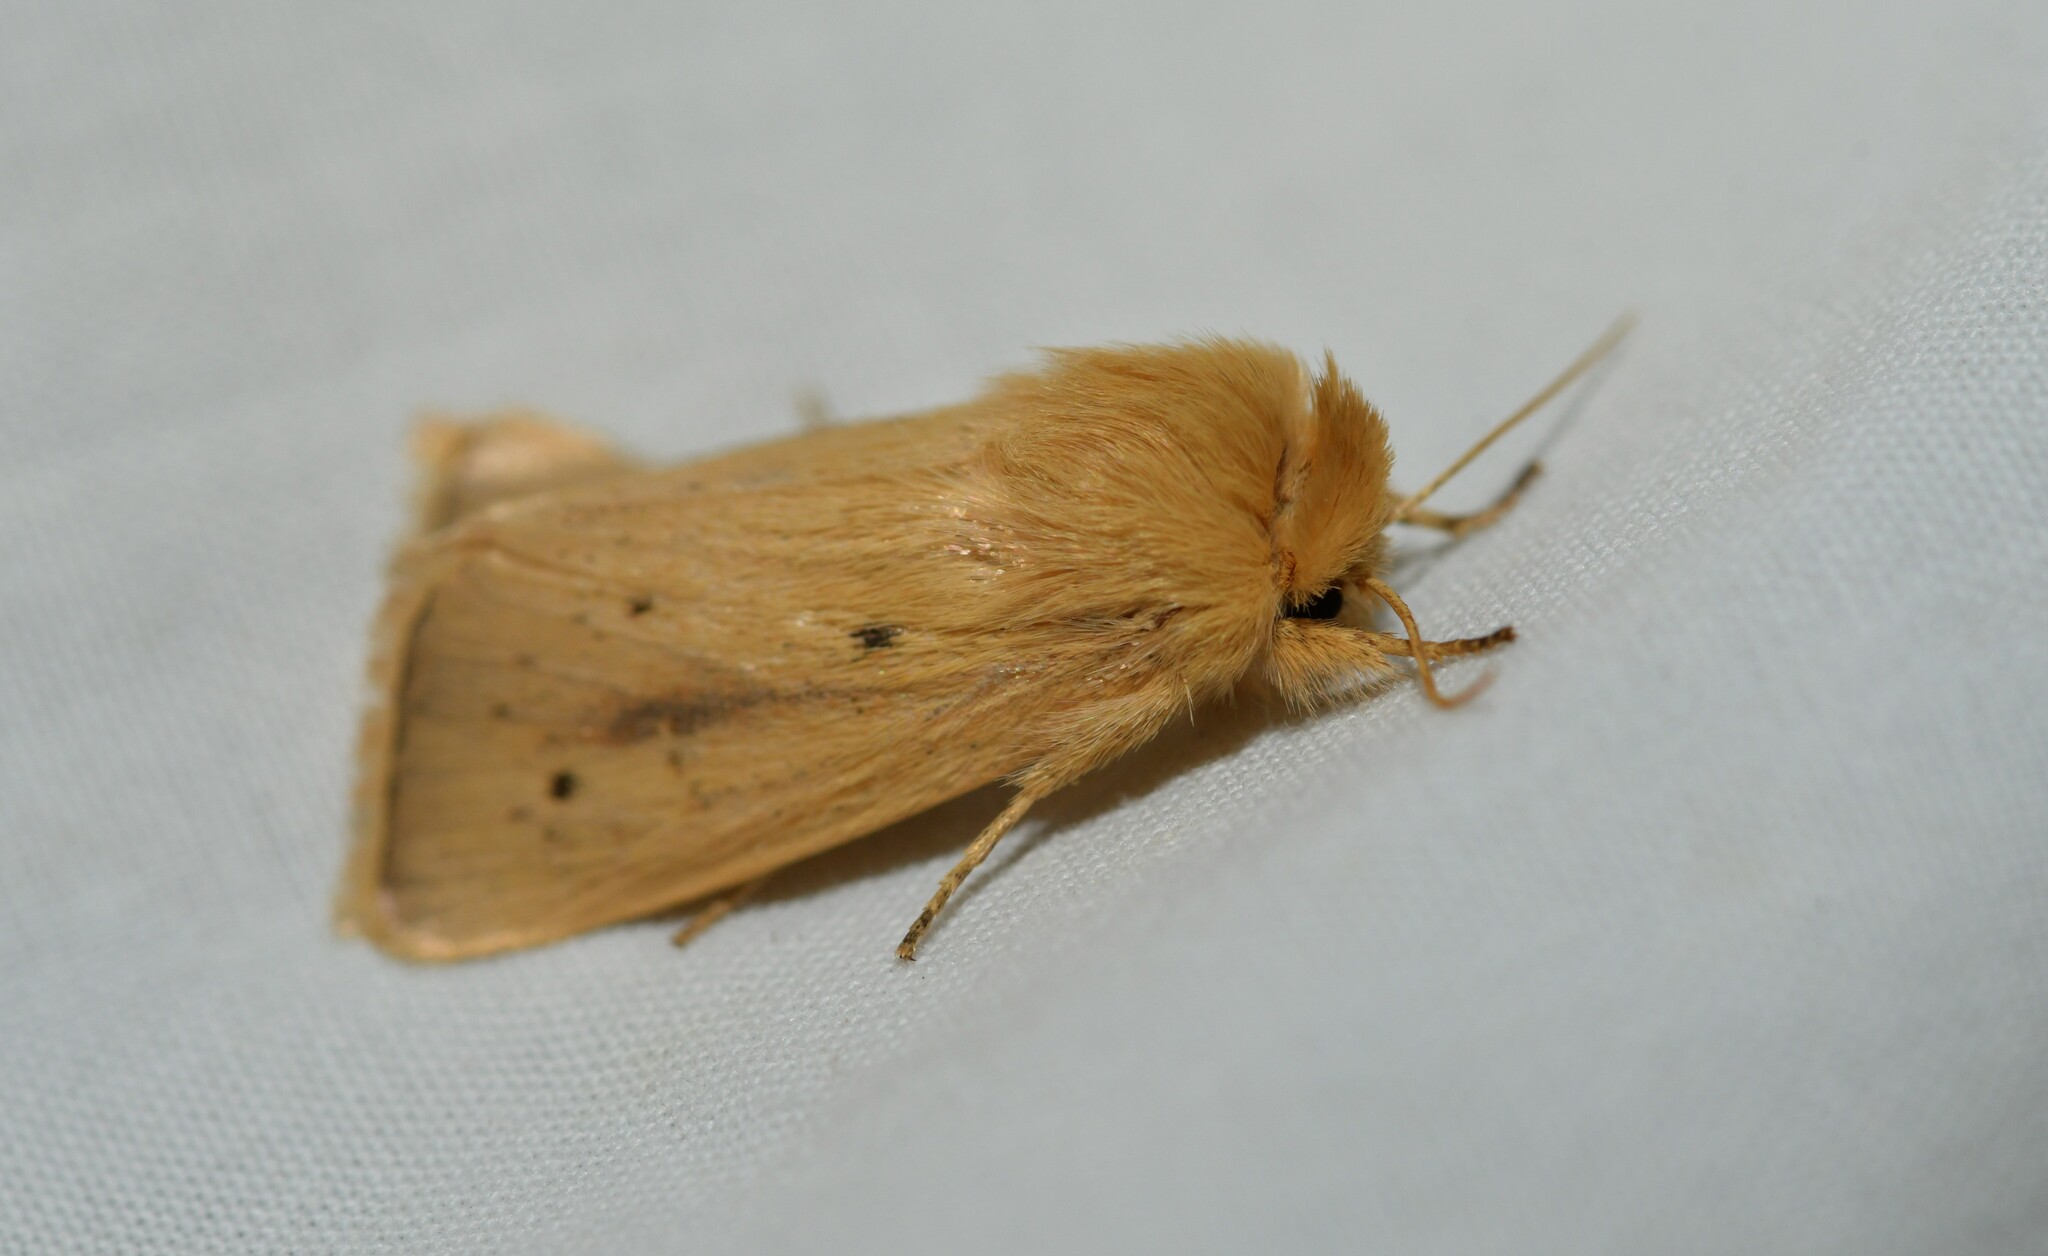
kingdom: Animalia
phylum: Arthropoda
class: Insecta
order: Lepidoptera
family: Noctuidae
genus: Sesamia
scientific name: Sesamia nonagrioides
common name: Pink stem borer
